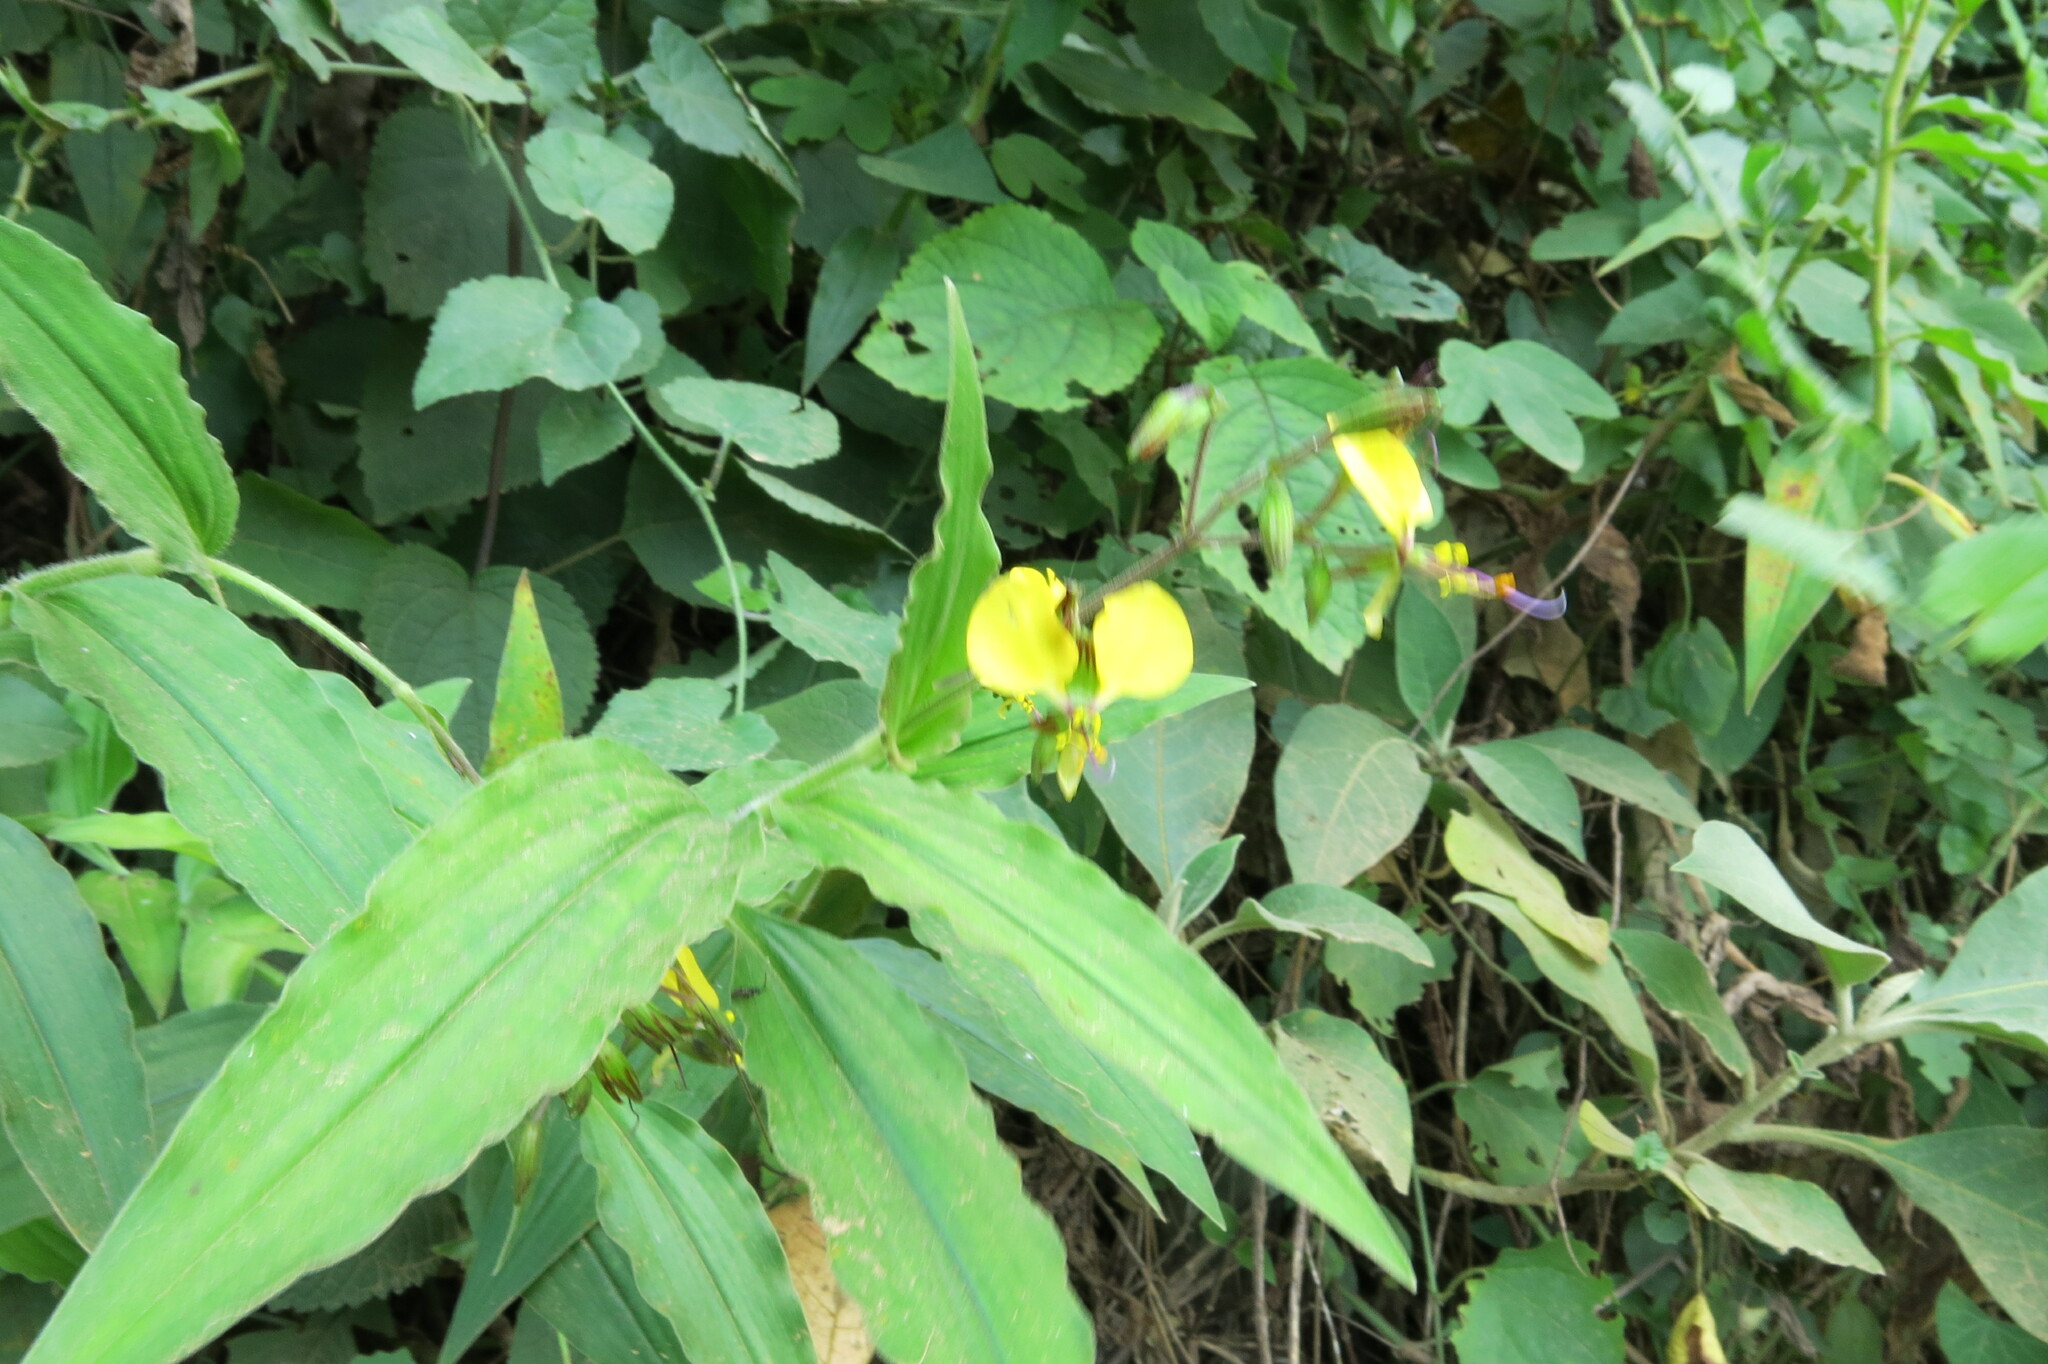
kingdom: Plantae
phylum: Tracheophyta
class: Liliopsida
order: Commelinales
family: Commelinaceae
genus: Aneilema
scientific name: Aneilema aequinoctiale
